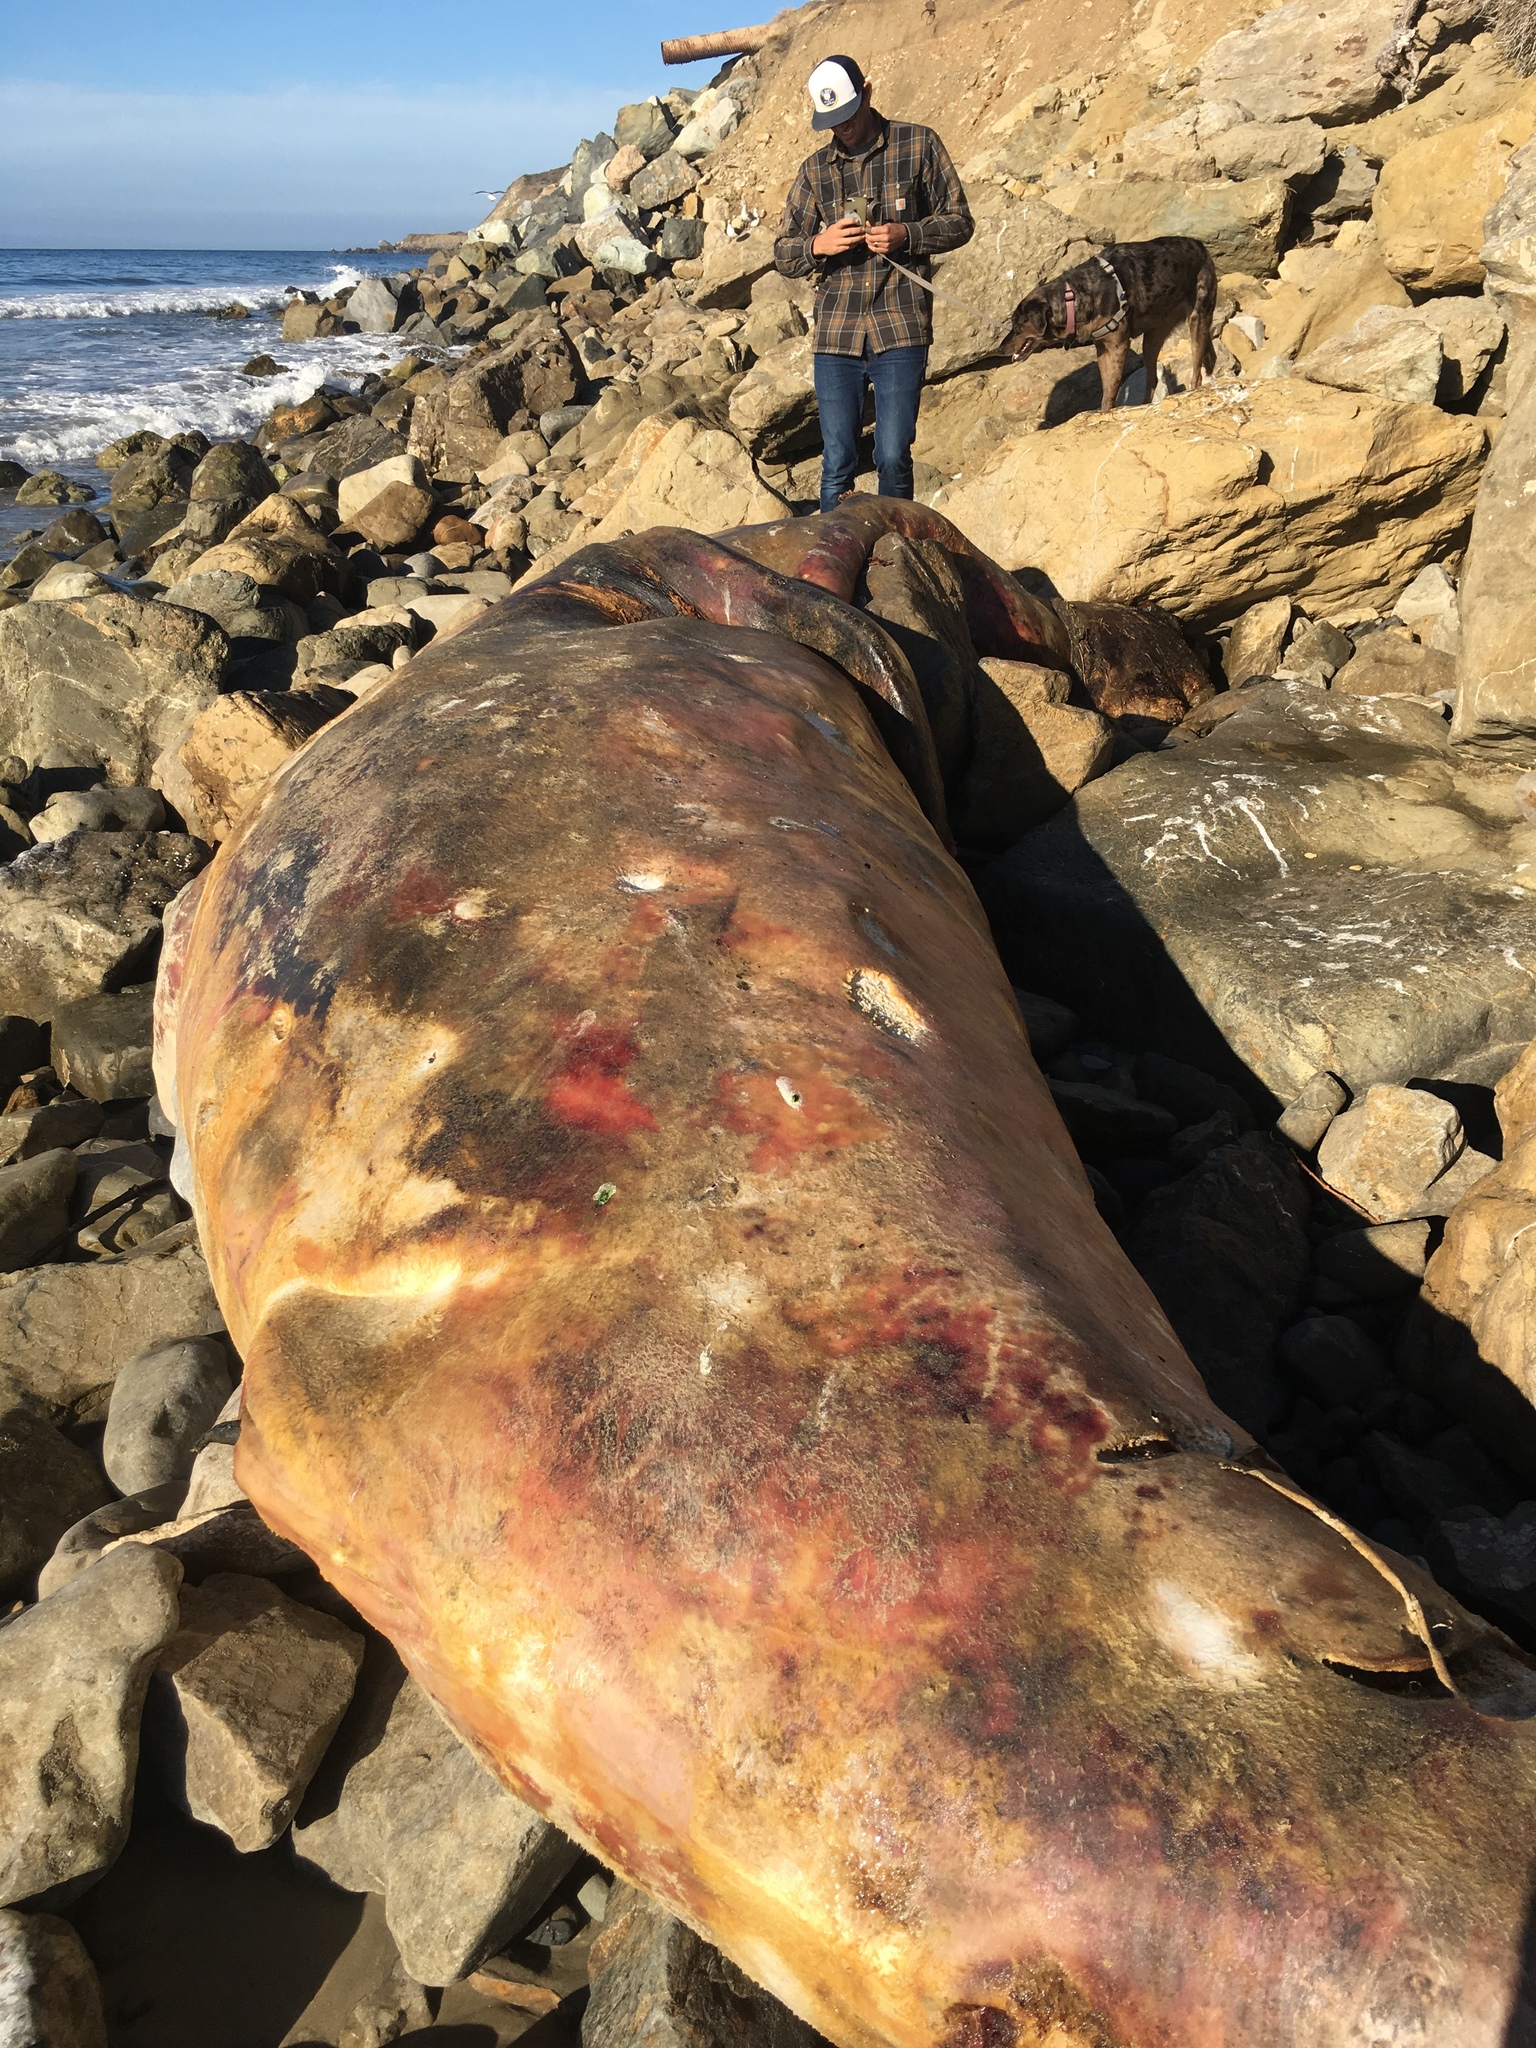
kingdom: Animalia
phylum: Chordata
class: Mammalia
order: Cetacea
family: Eschrichtiidae
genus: Eschrichtius
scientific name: Eschrichtius robustus
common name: Gray whale
